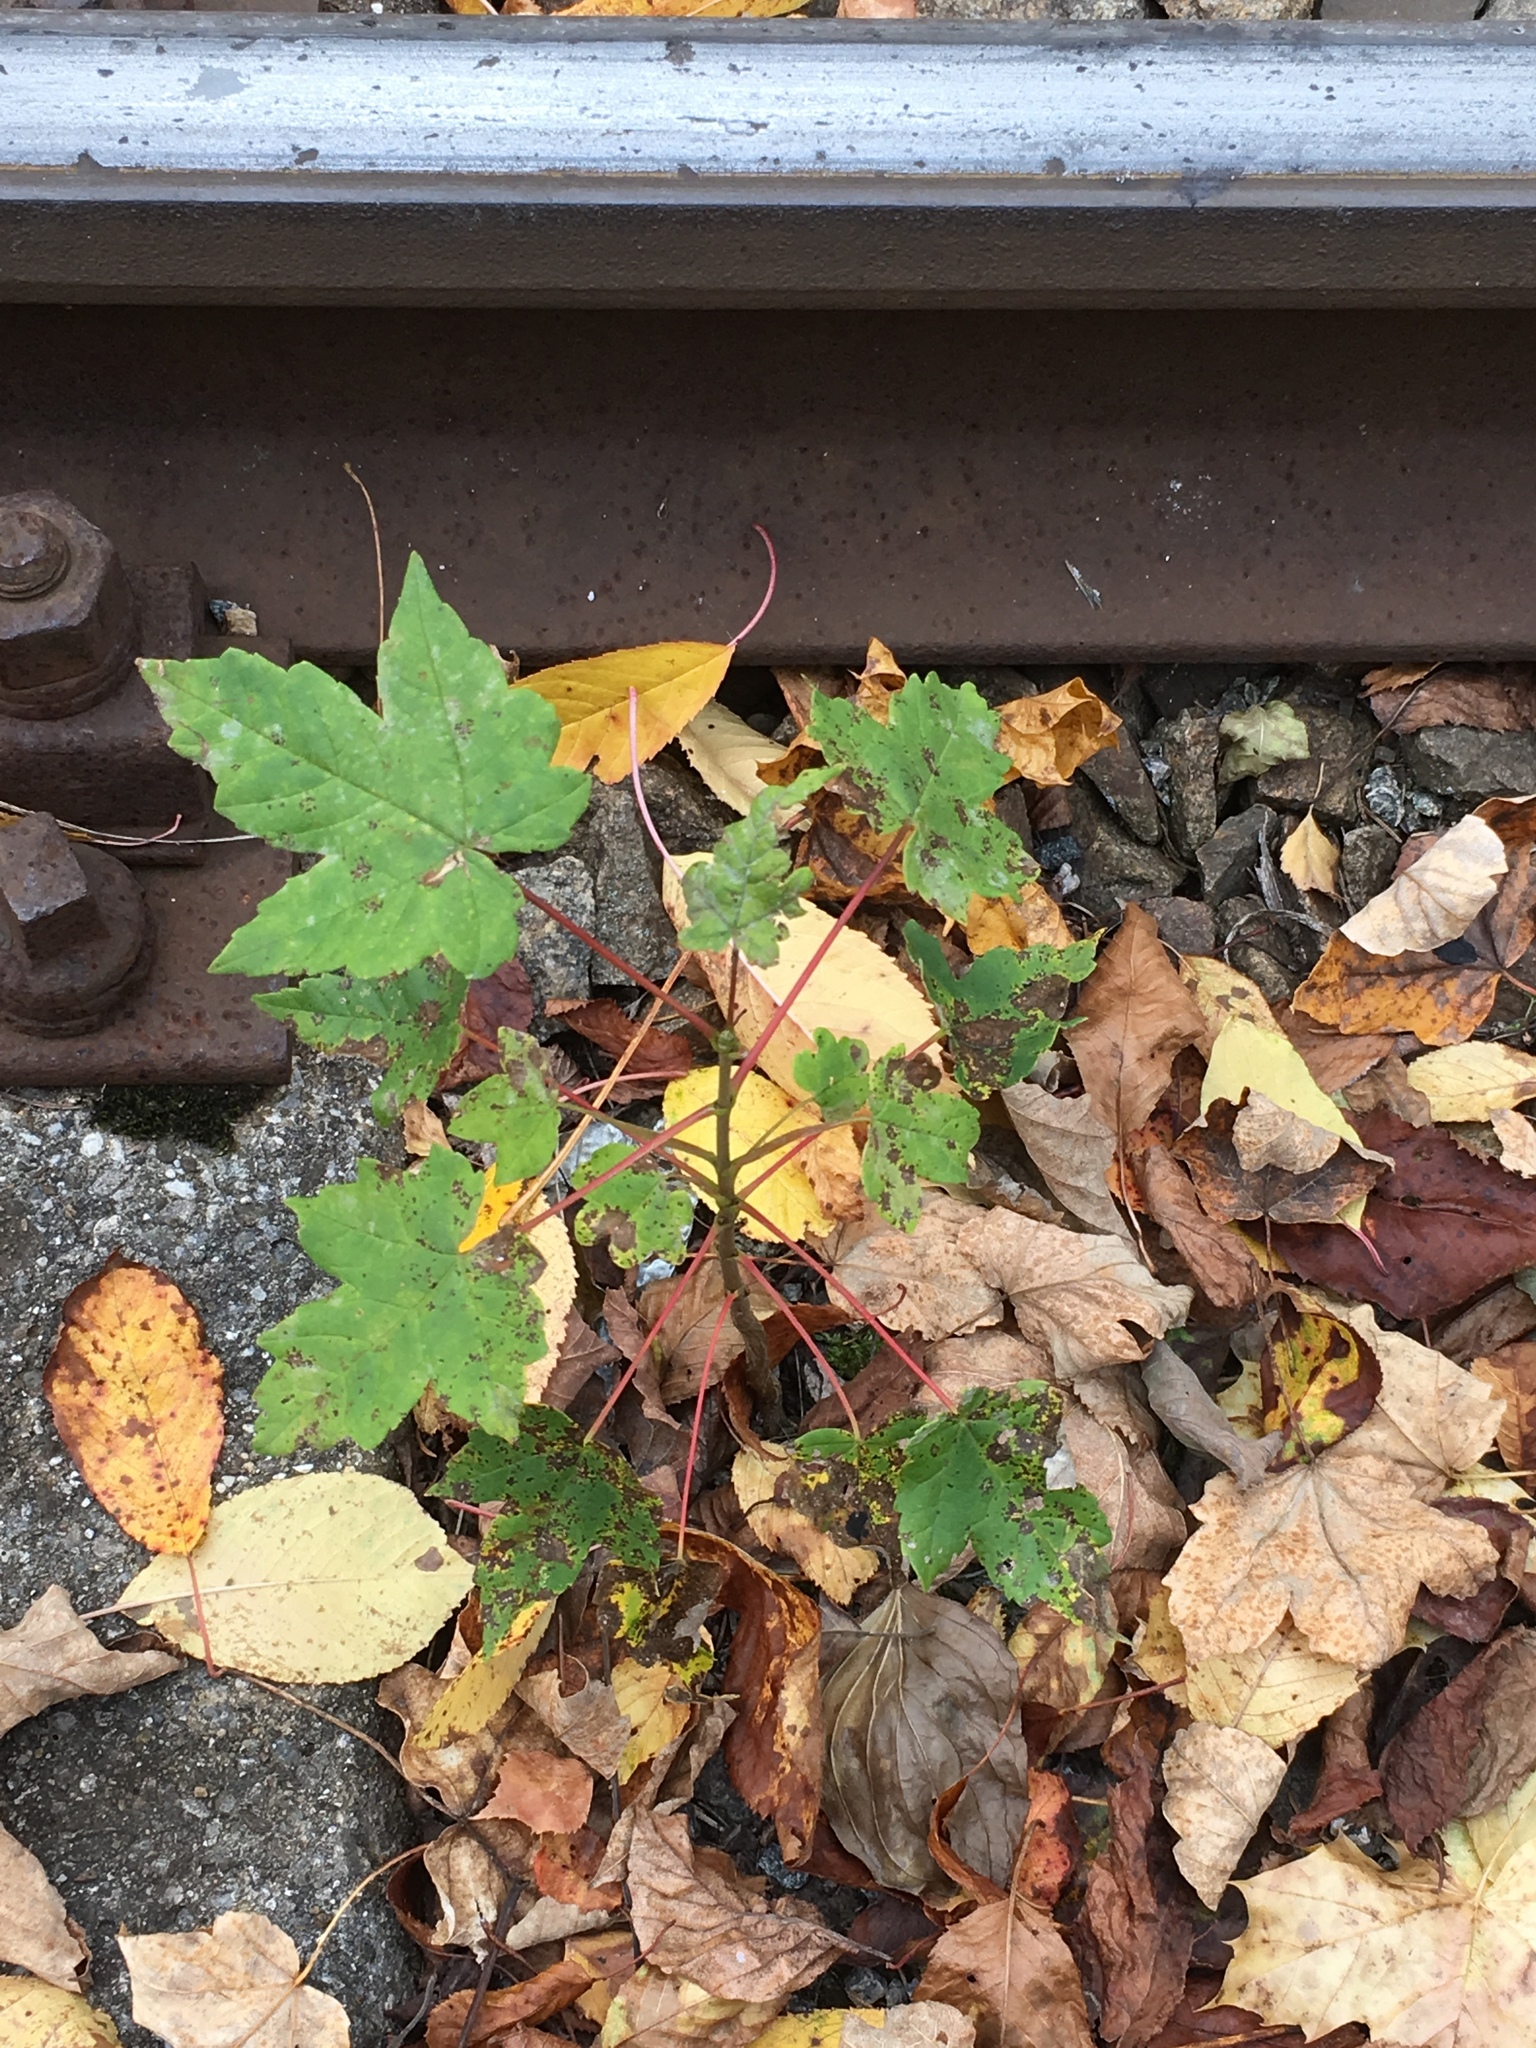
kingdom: Plantae
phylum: Tracheophyta
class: Magnoliopsida
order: Sapindales
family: Sapindaceae
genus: Acer
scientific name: Acer pseudoplatanus
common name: Sycamore
